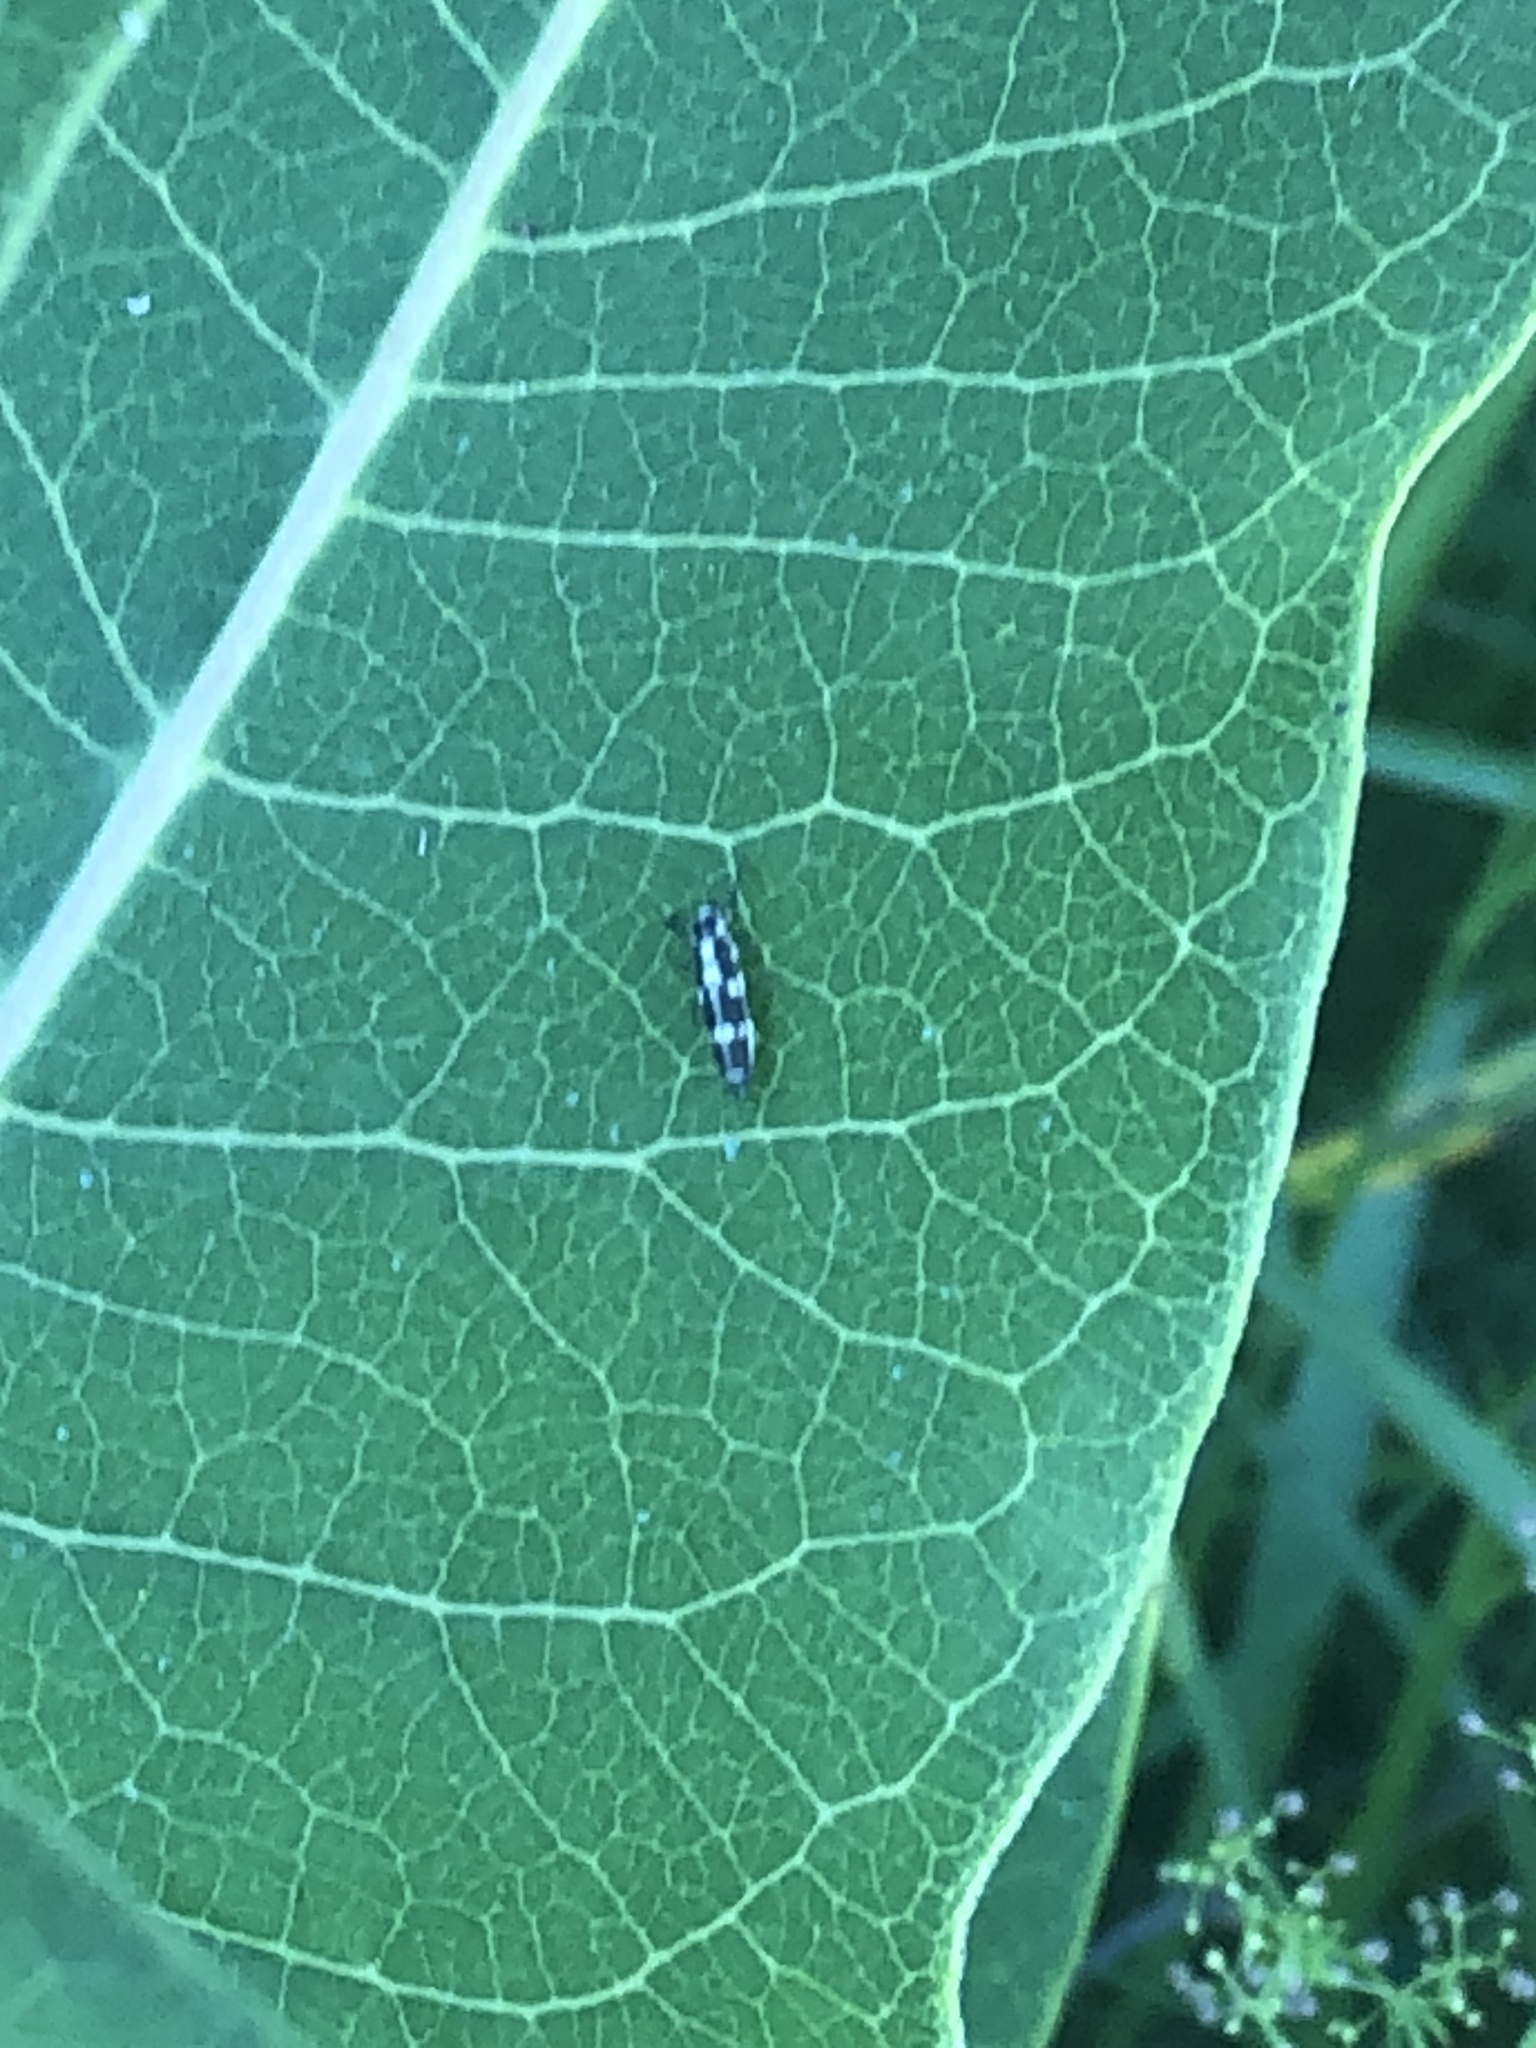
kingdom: Animalia
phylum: Arthropoda
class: Insecta
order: Coleoptera
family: Coccinellidae
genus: Propylaea
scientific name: Propylaea quatuordecimpunctata
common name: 14-spotted ladybird beetle
